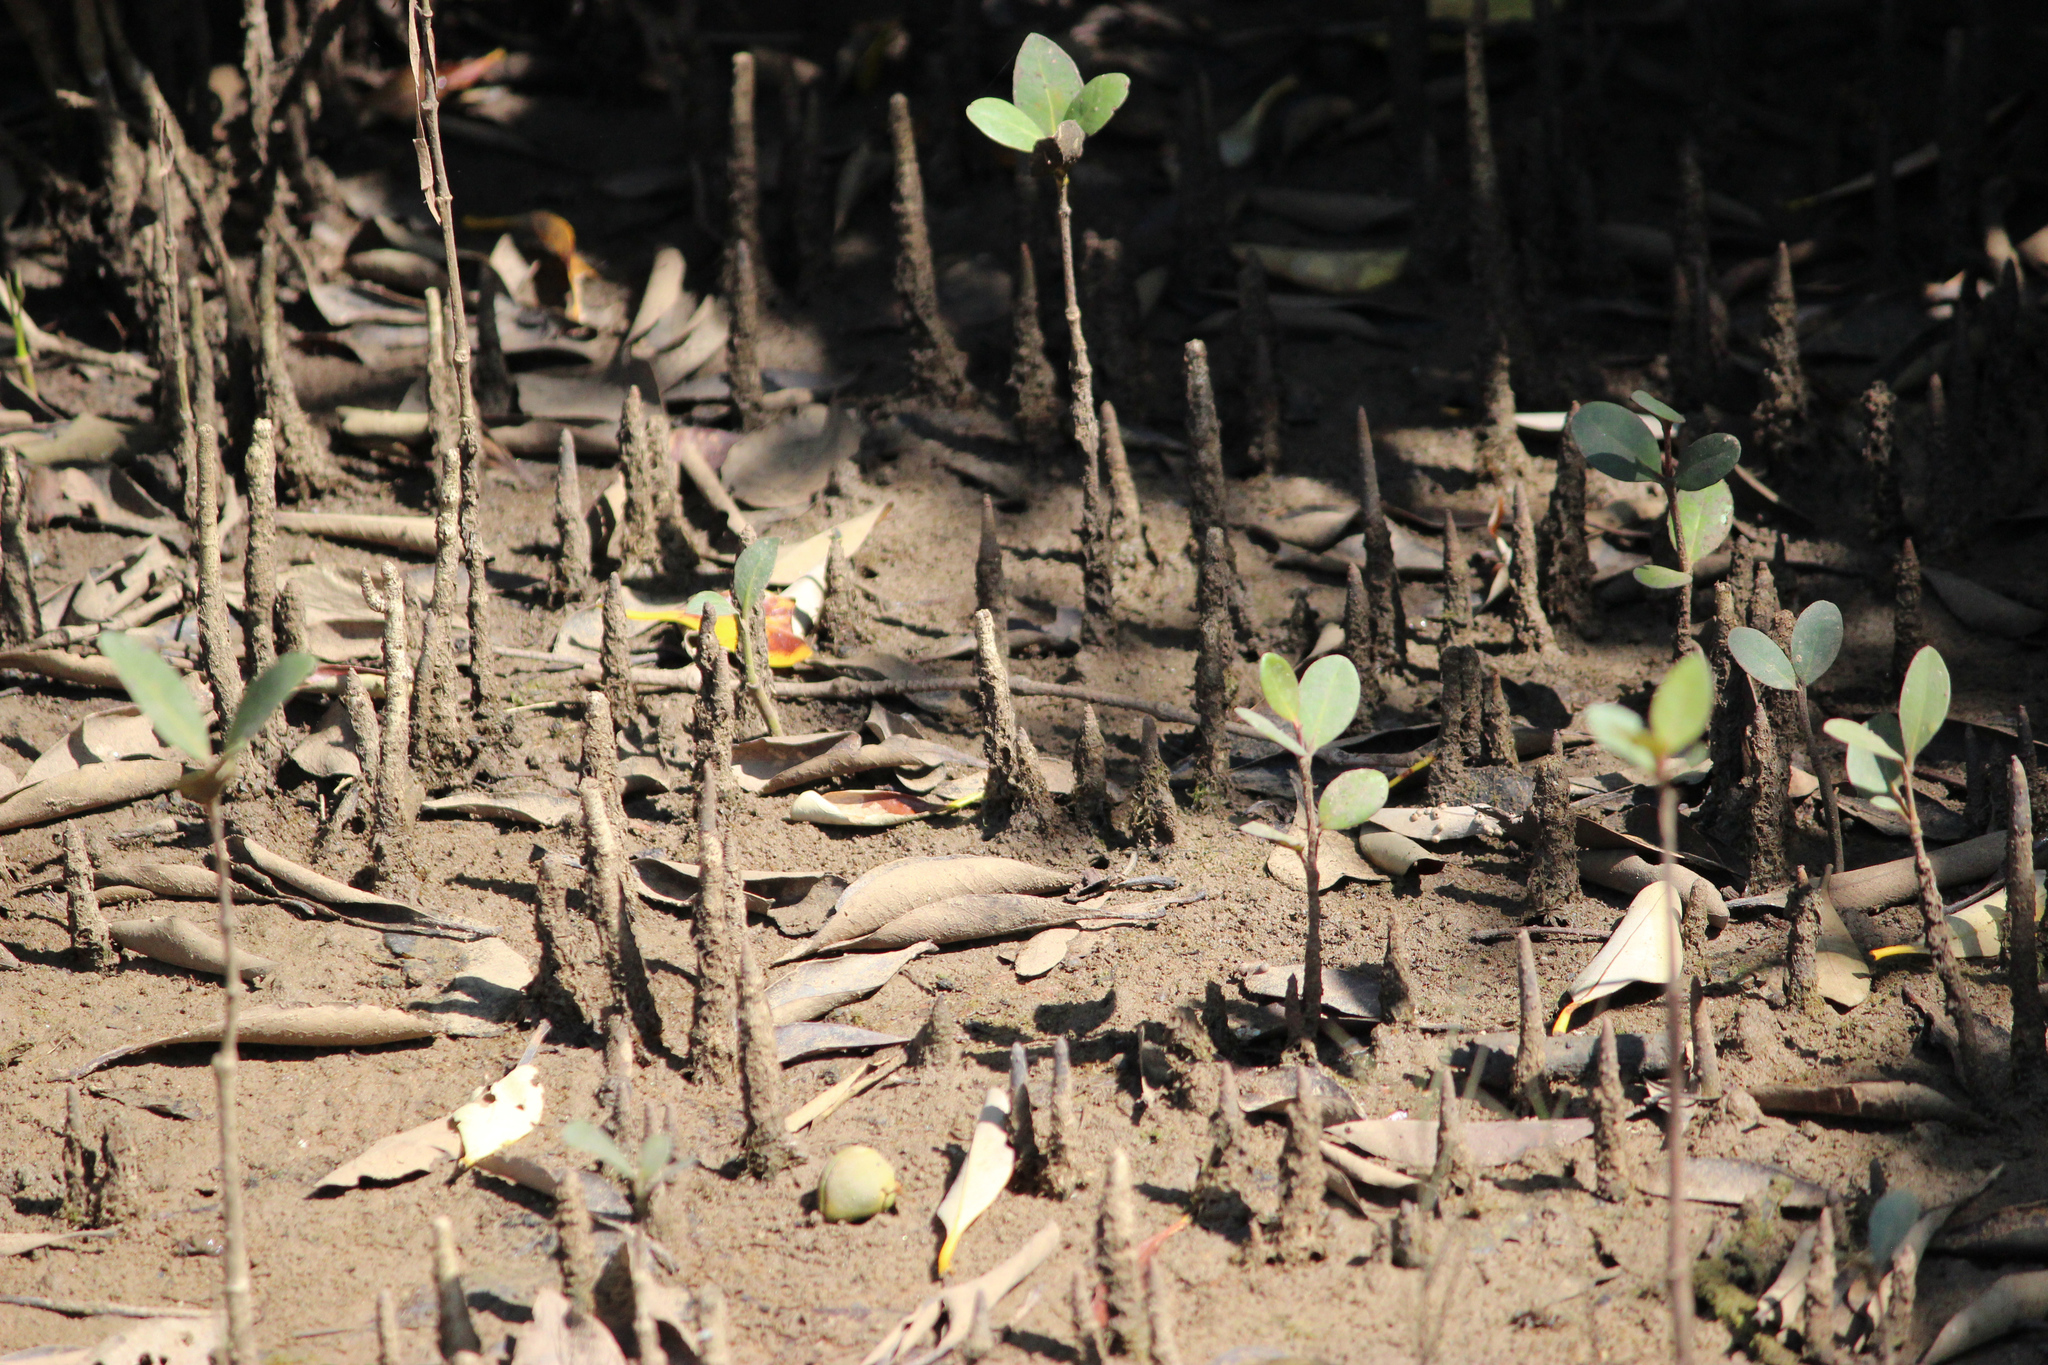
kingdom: Plantae
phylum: Tracheophyta
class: Magnoliopsida
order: Lamiales
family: Acanthaceae
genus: Avicennia
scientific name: Avicennia marina
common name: Gray mangrove
